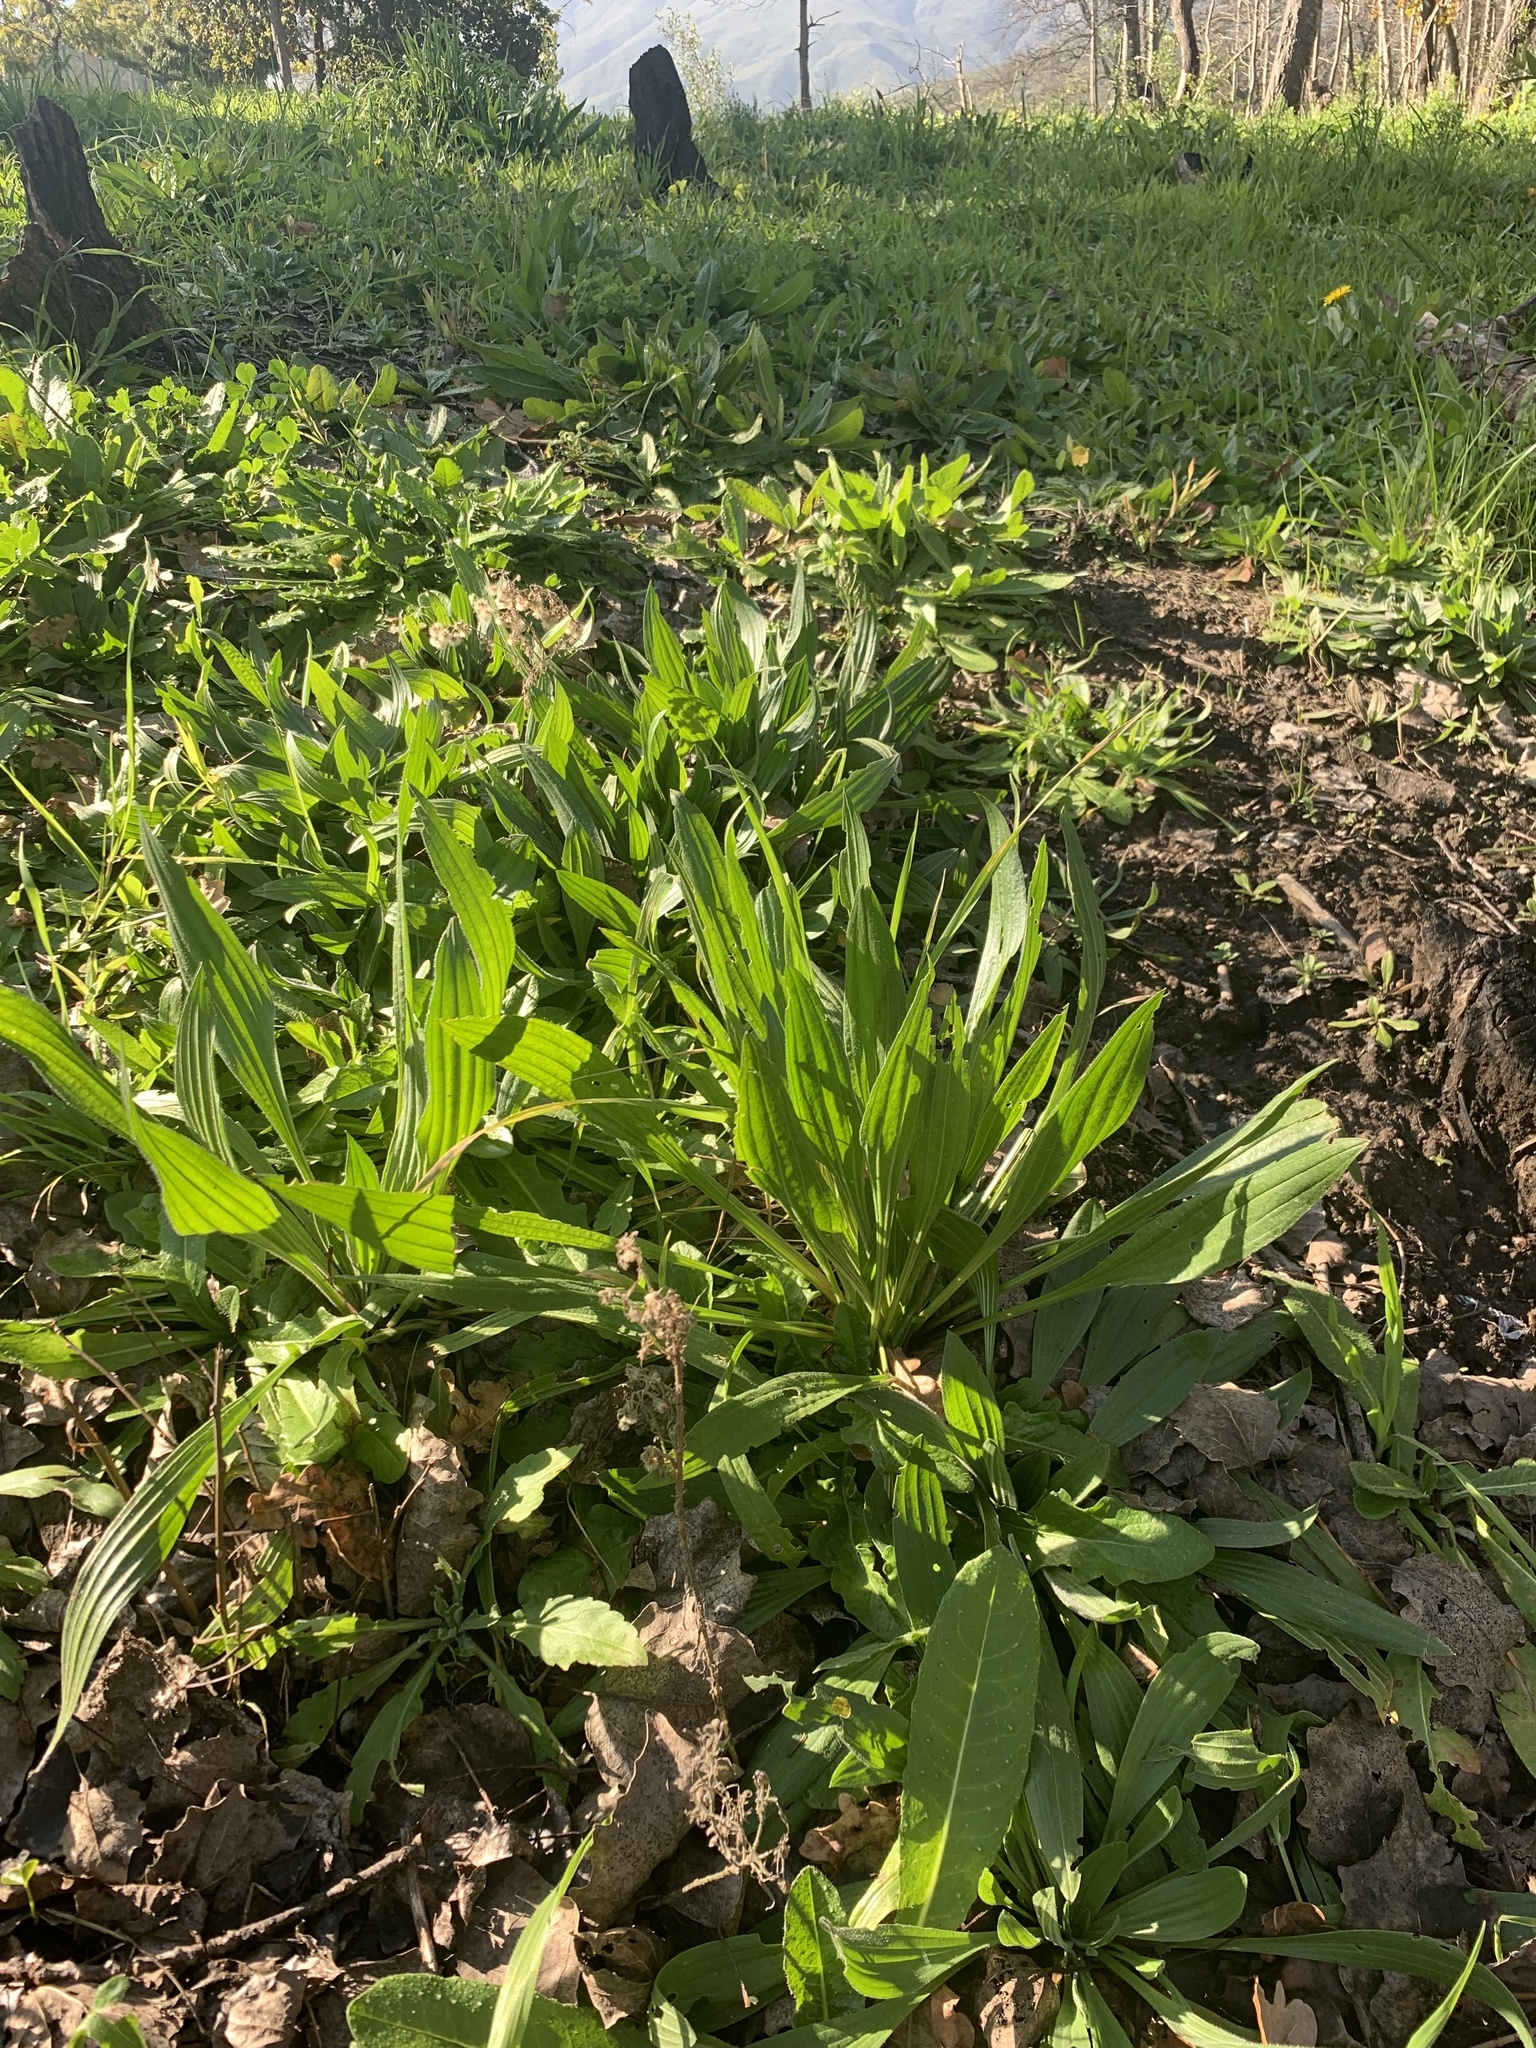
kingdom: Plantae
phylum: Tracheophyta
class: Magnoliopsida
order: Lamiales
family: Plantaginaceae
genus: Plantago
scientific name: Plantago lanceolata
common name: Ribwort plantain
